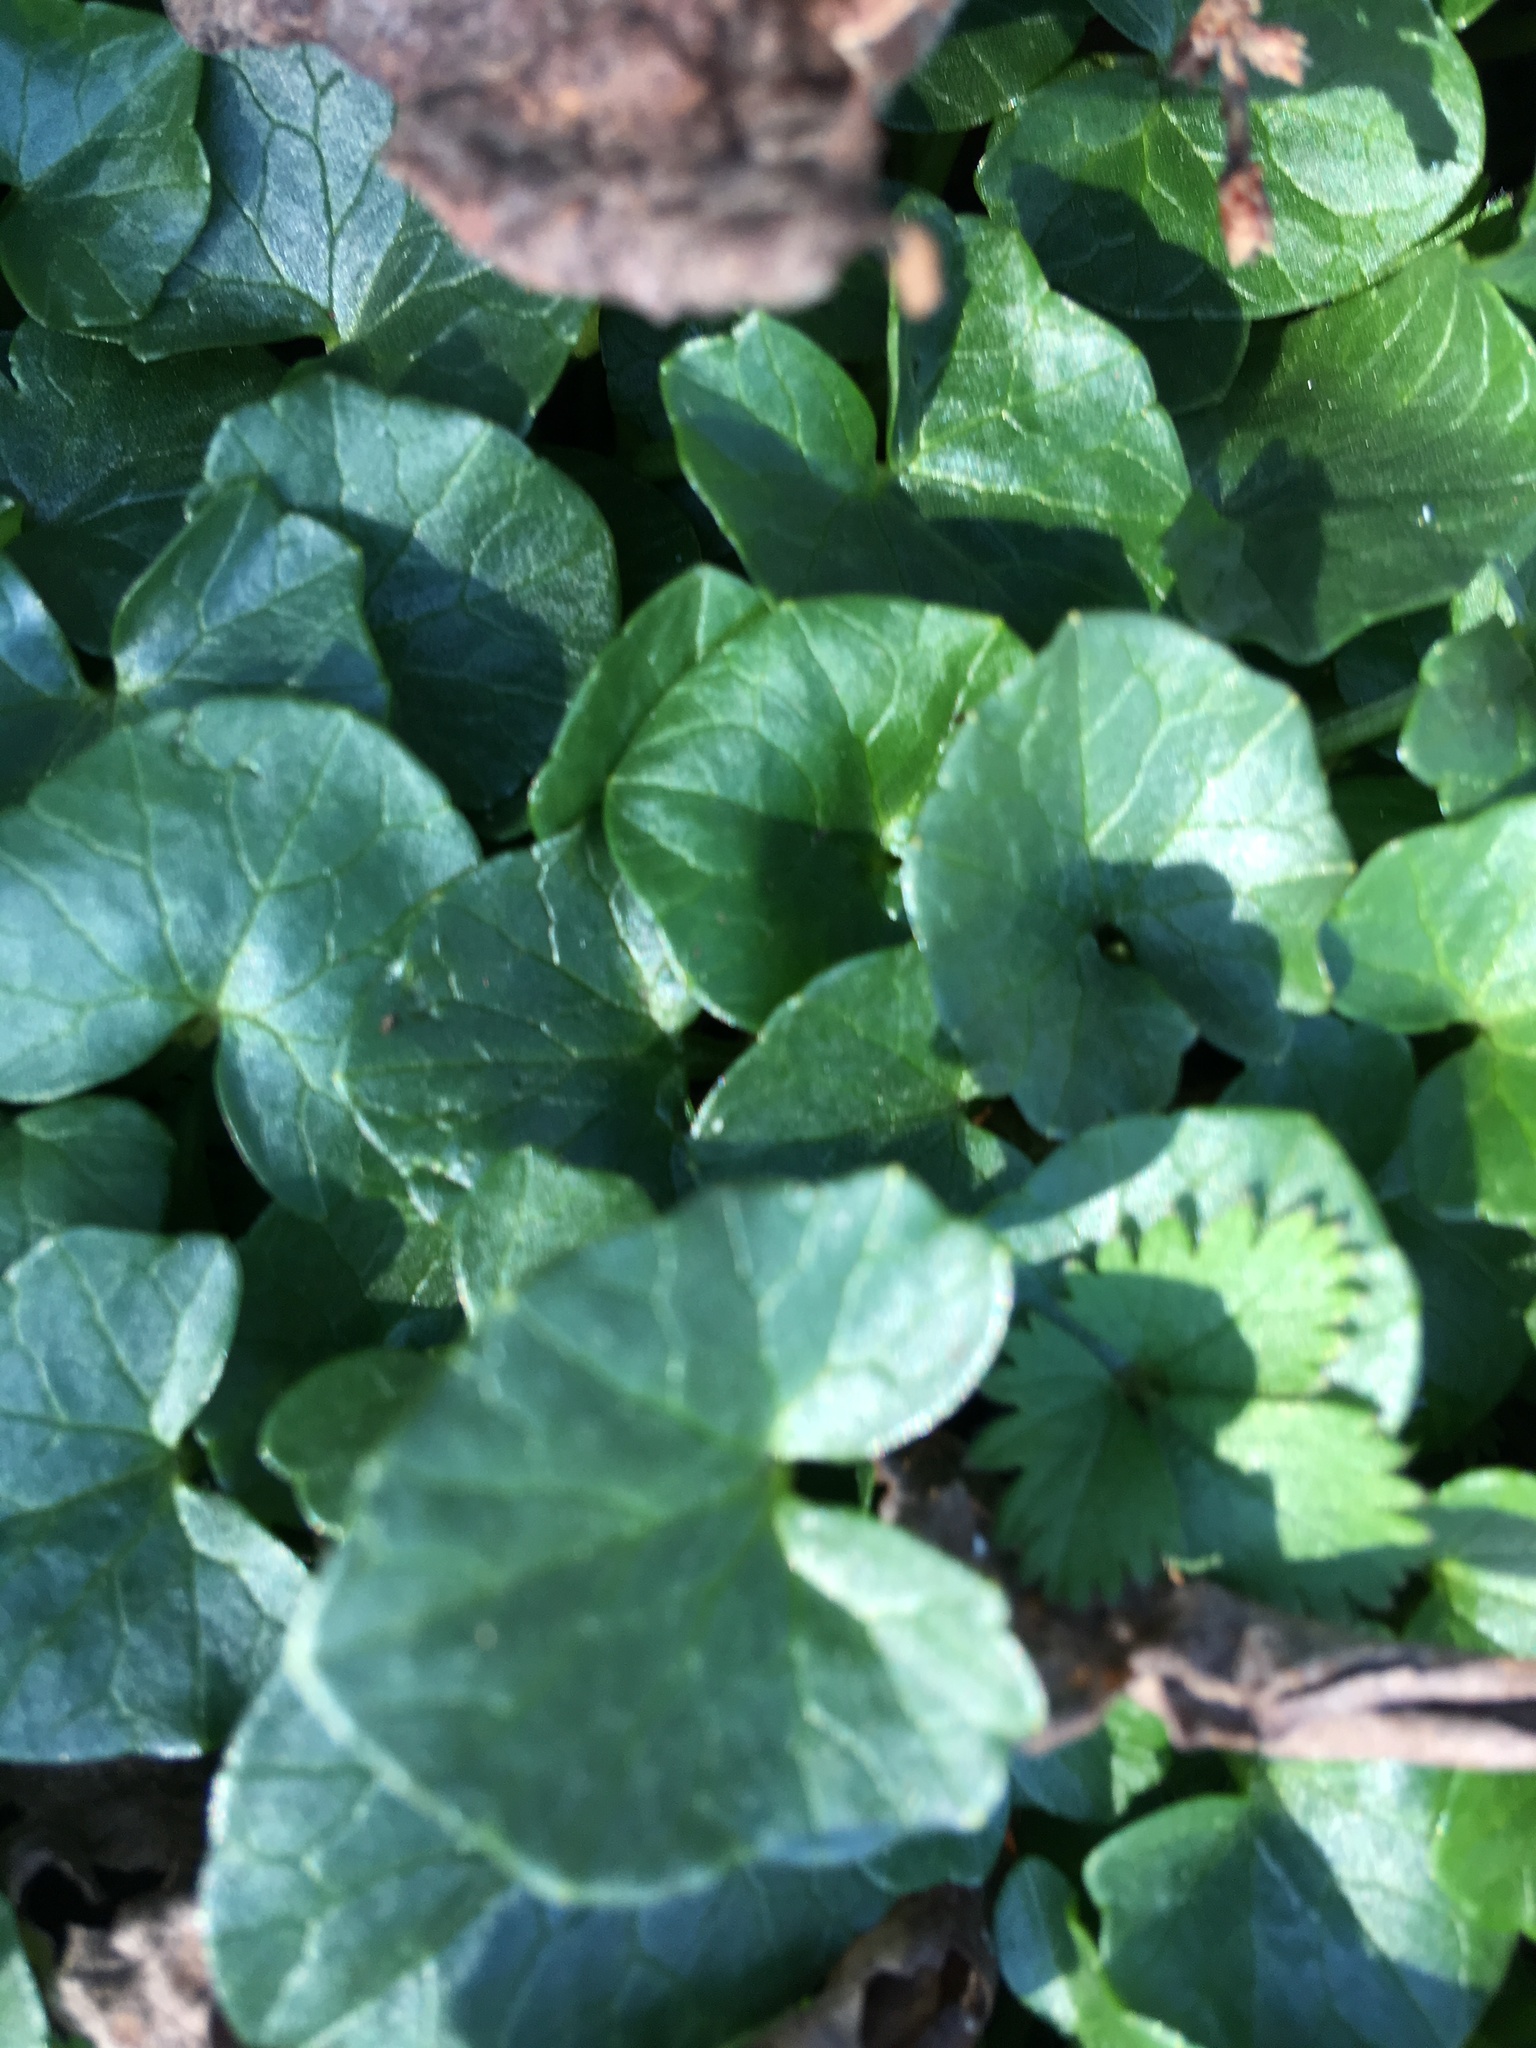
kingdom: Plantae
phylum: Tracheophyta
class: Magnoliopsida
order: Ranunculales
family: Ranunculaceae
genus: Ficaria
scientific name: Ficaria verna
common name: Lesser celandine
